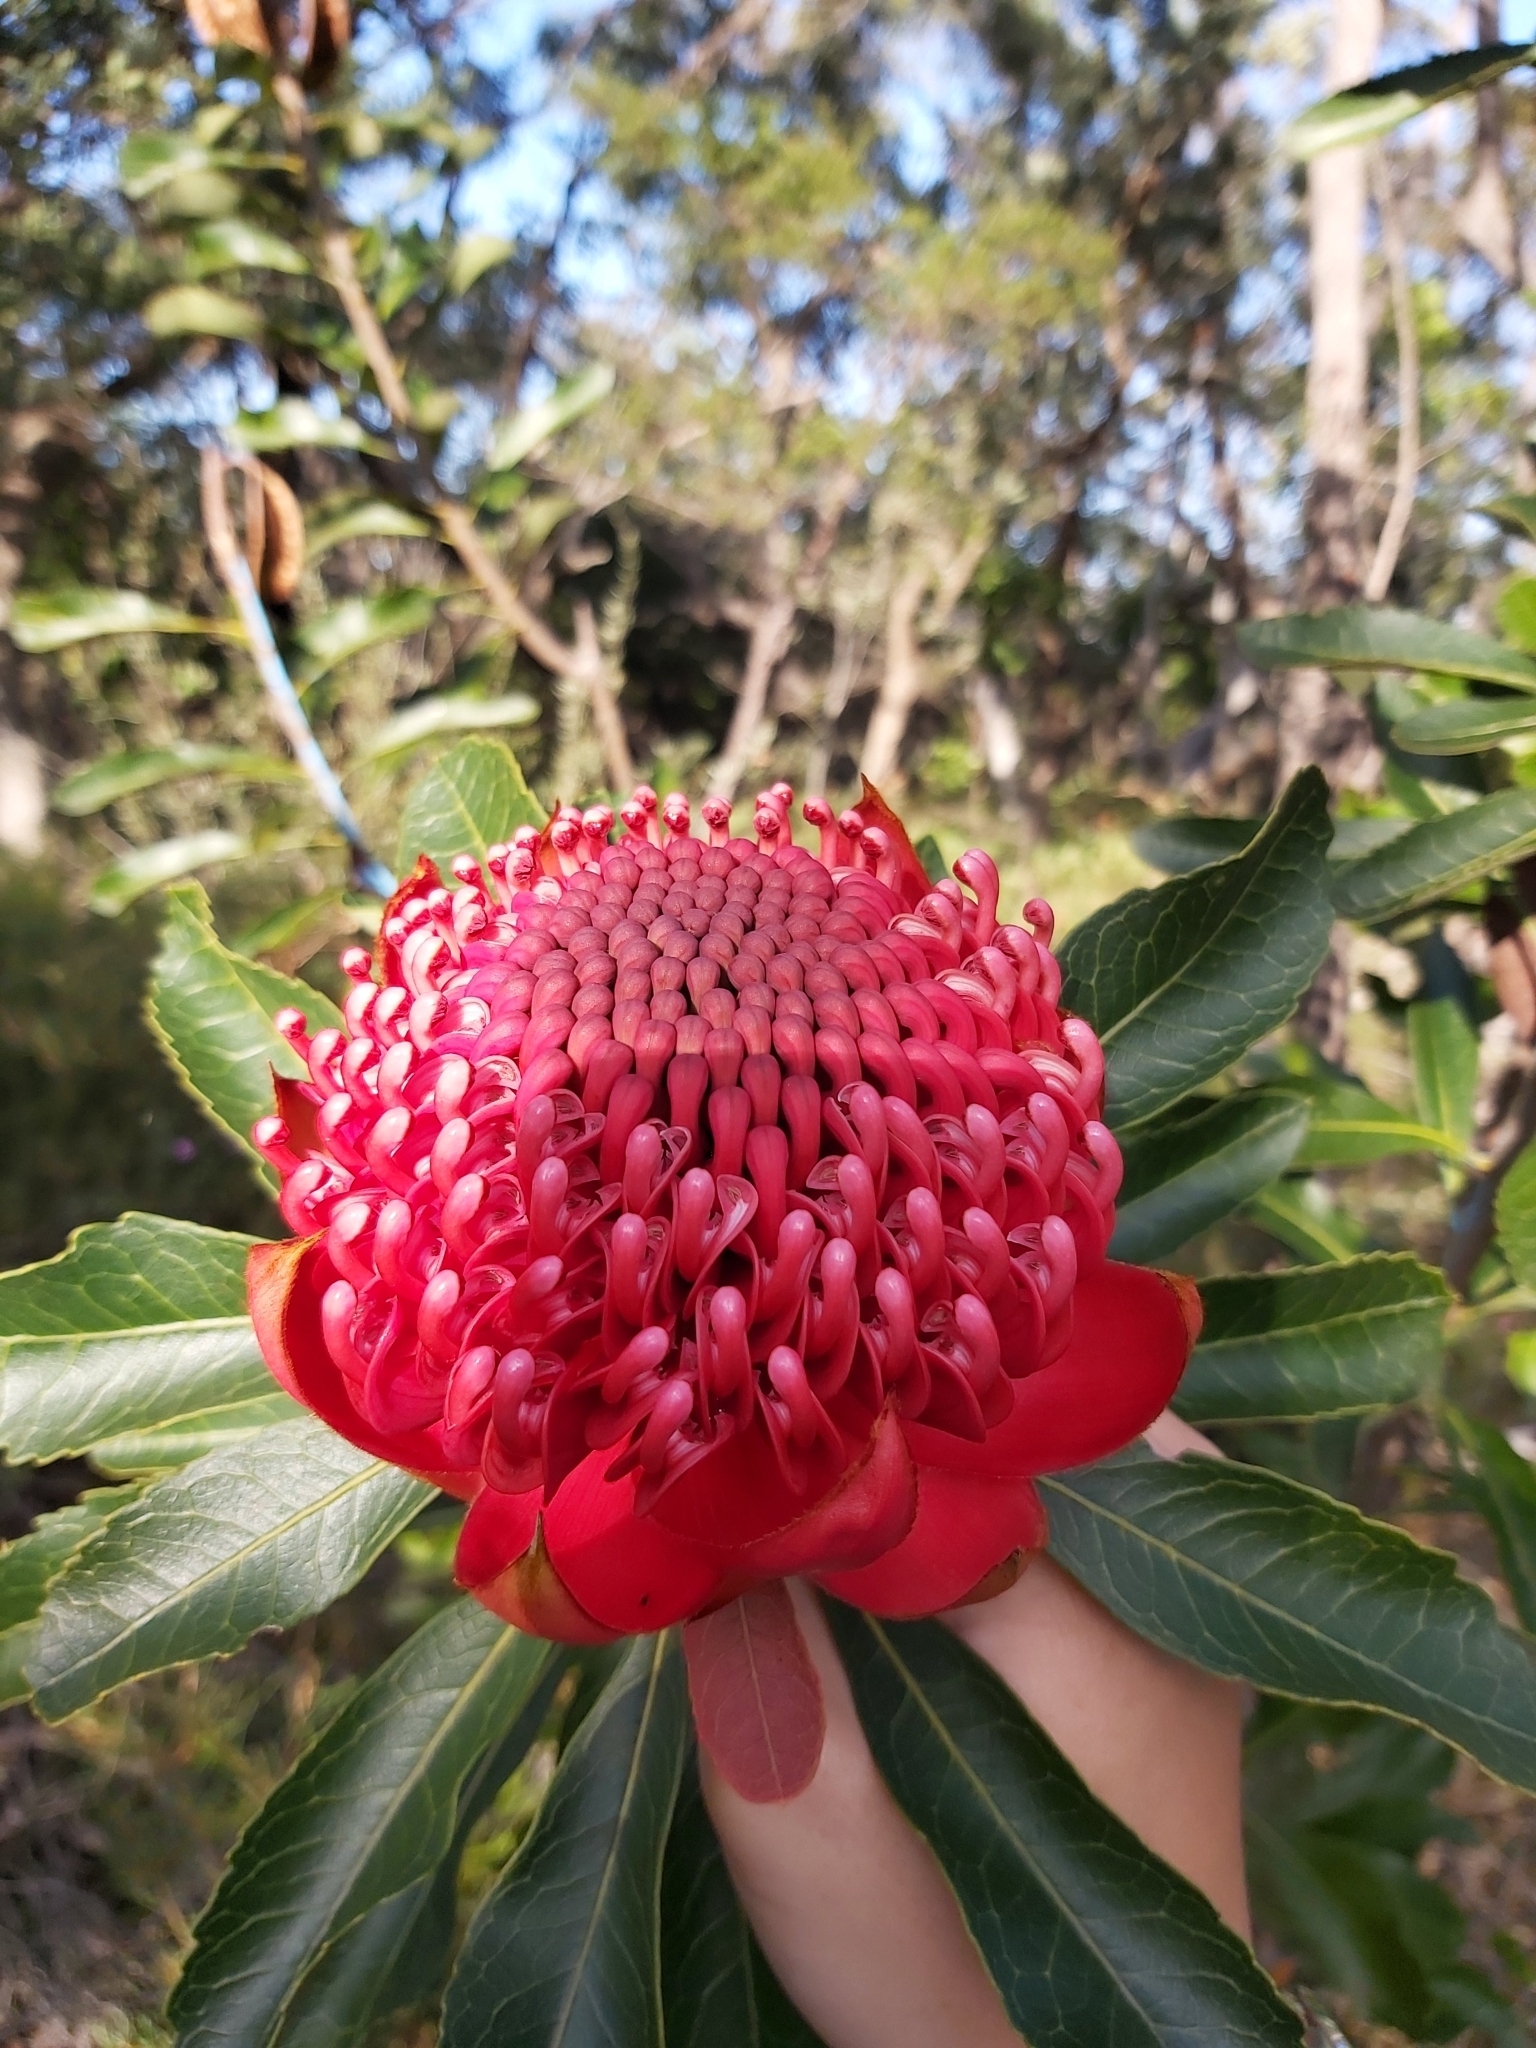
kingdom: Plantae
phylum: Tracheophyta
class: Magnoliopsida
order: Proteales
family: Proteaceae
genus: Telopea
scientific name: Telopea speciosissima
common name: New south wales waratah
